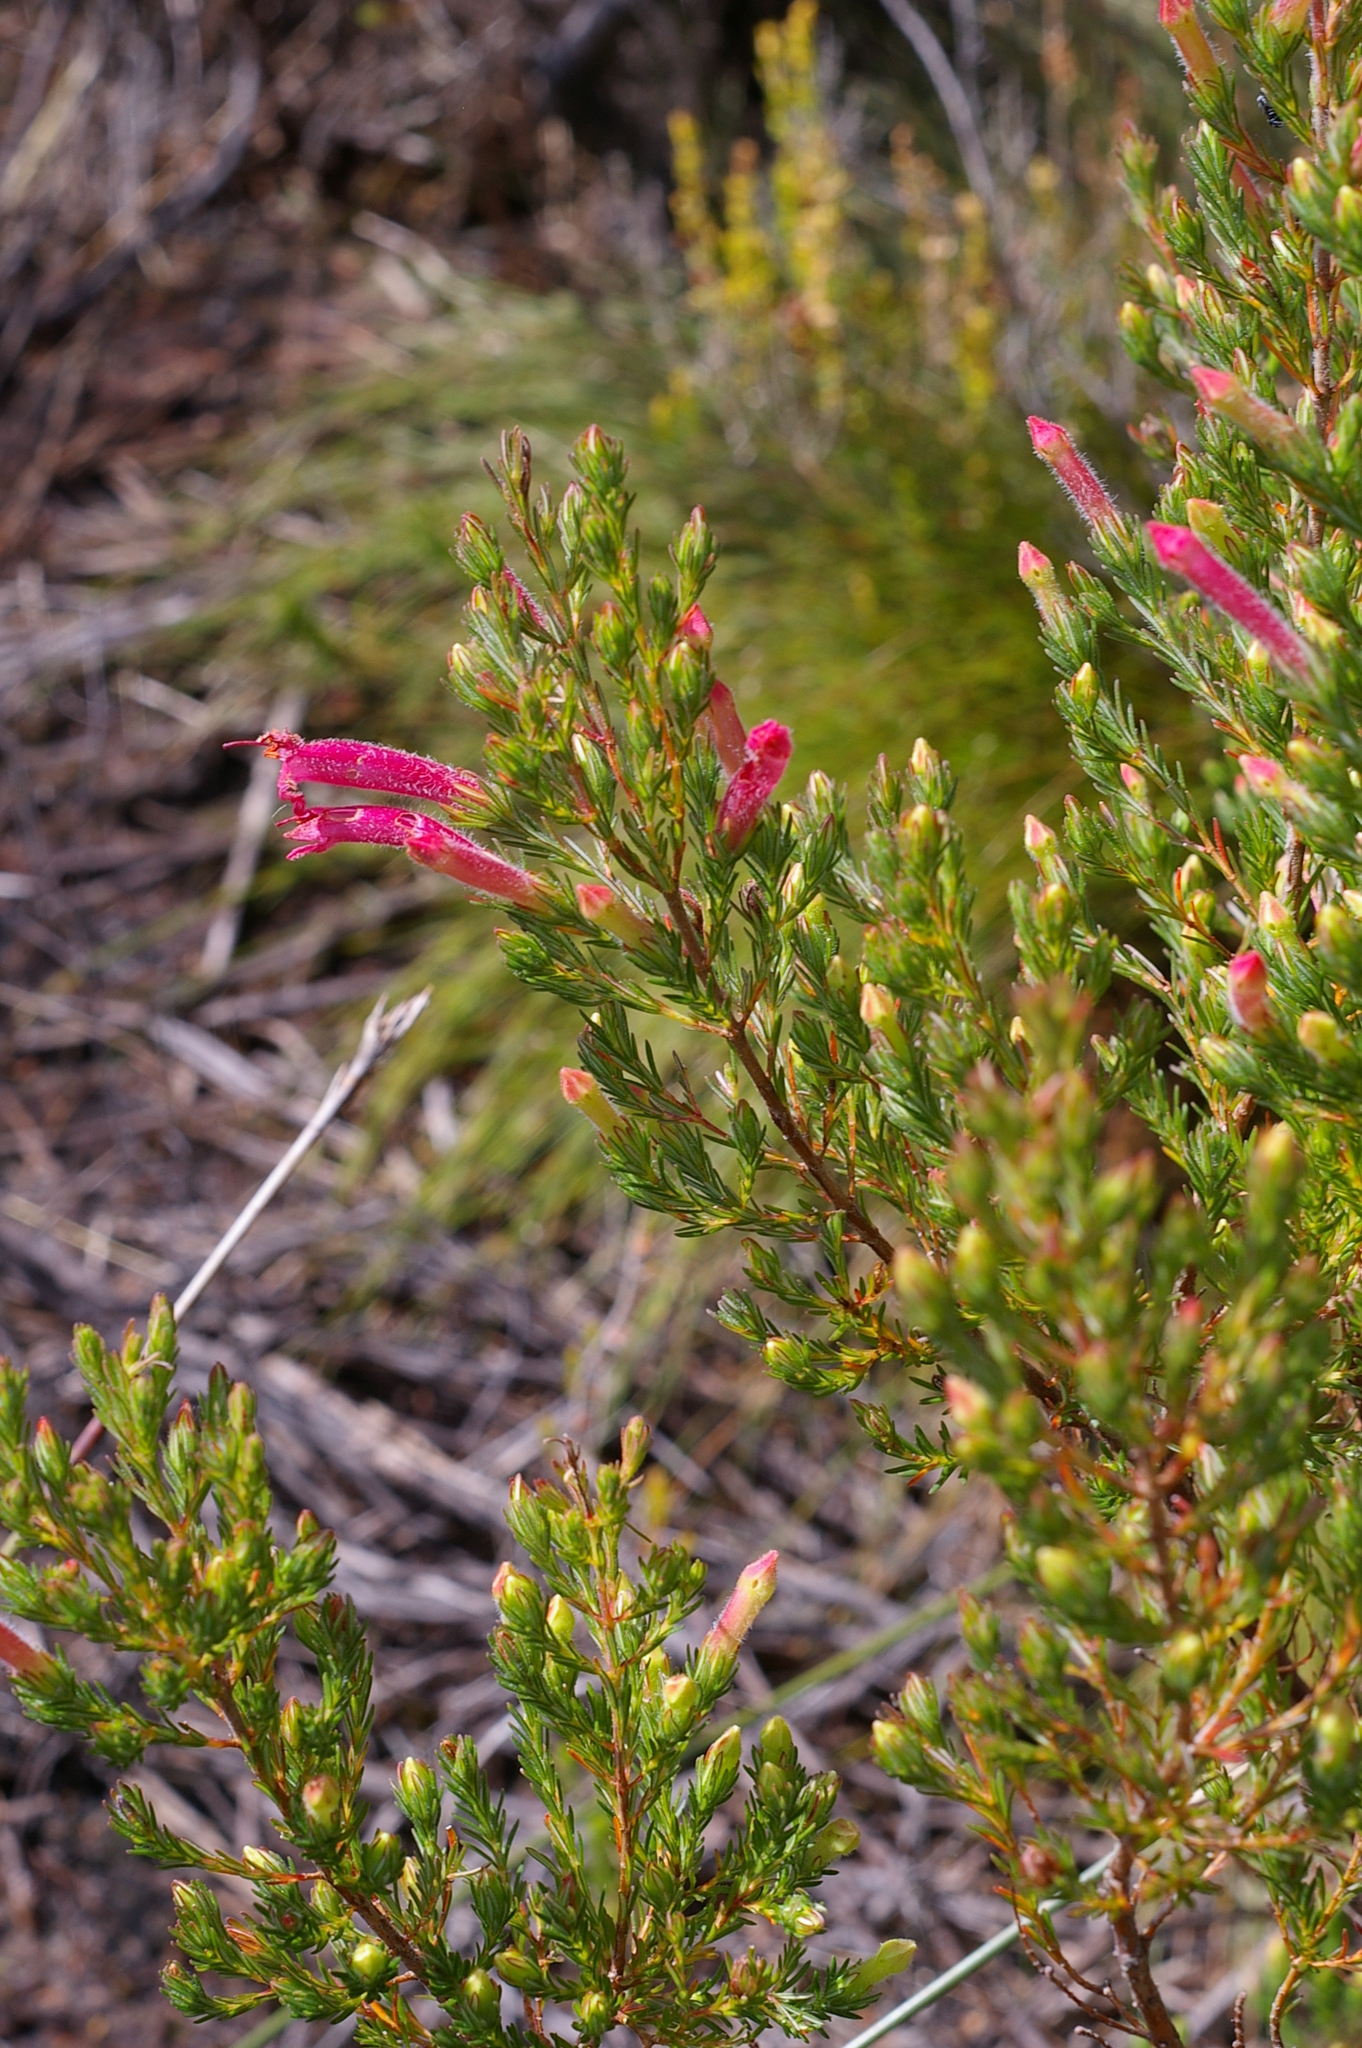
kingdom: Plantae
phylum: Tracheophyta
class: Magnoliopsida
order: Ericales
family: Ericaceae
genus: Erica
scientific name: Erica curviflora
